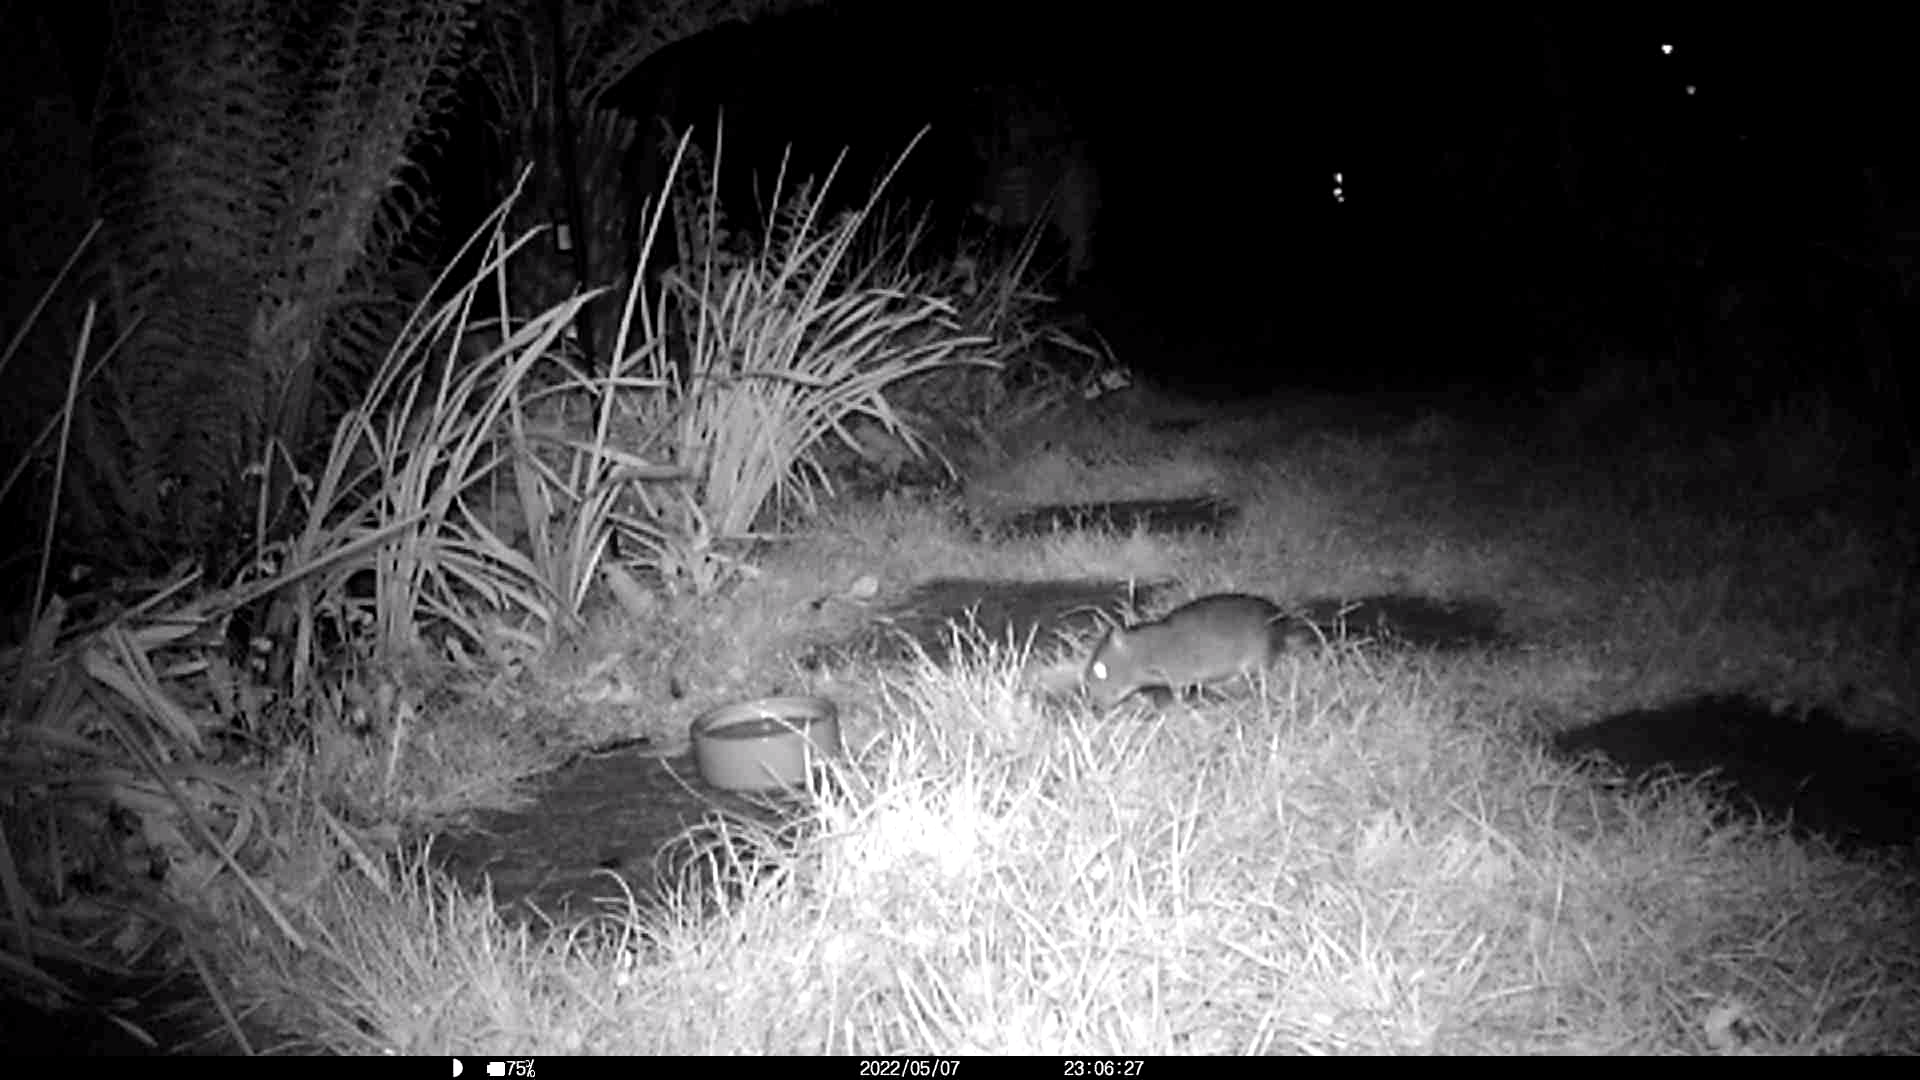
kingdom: Animalia
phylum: Chordata
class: Mammalia
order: Rodentia
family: Muridae
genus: Rattus
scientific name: Rattus norvegicus
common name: Brown rat
